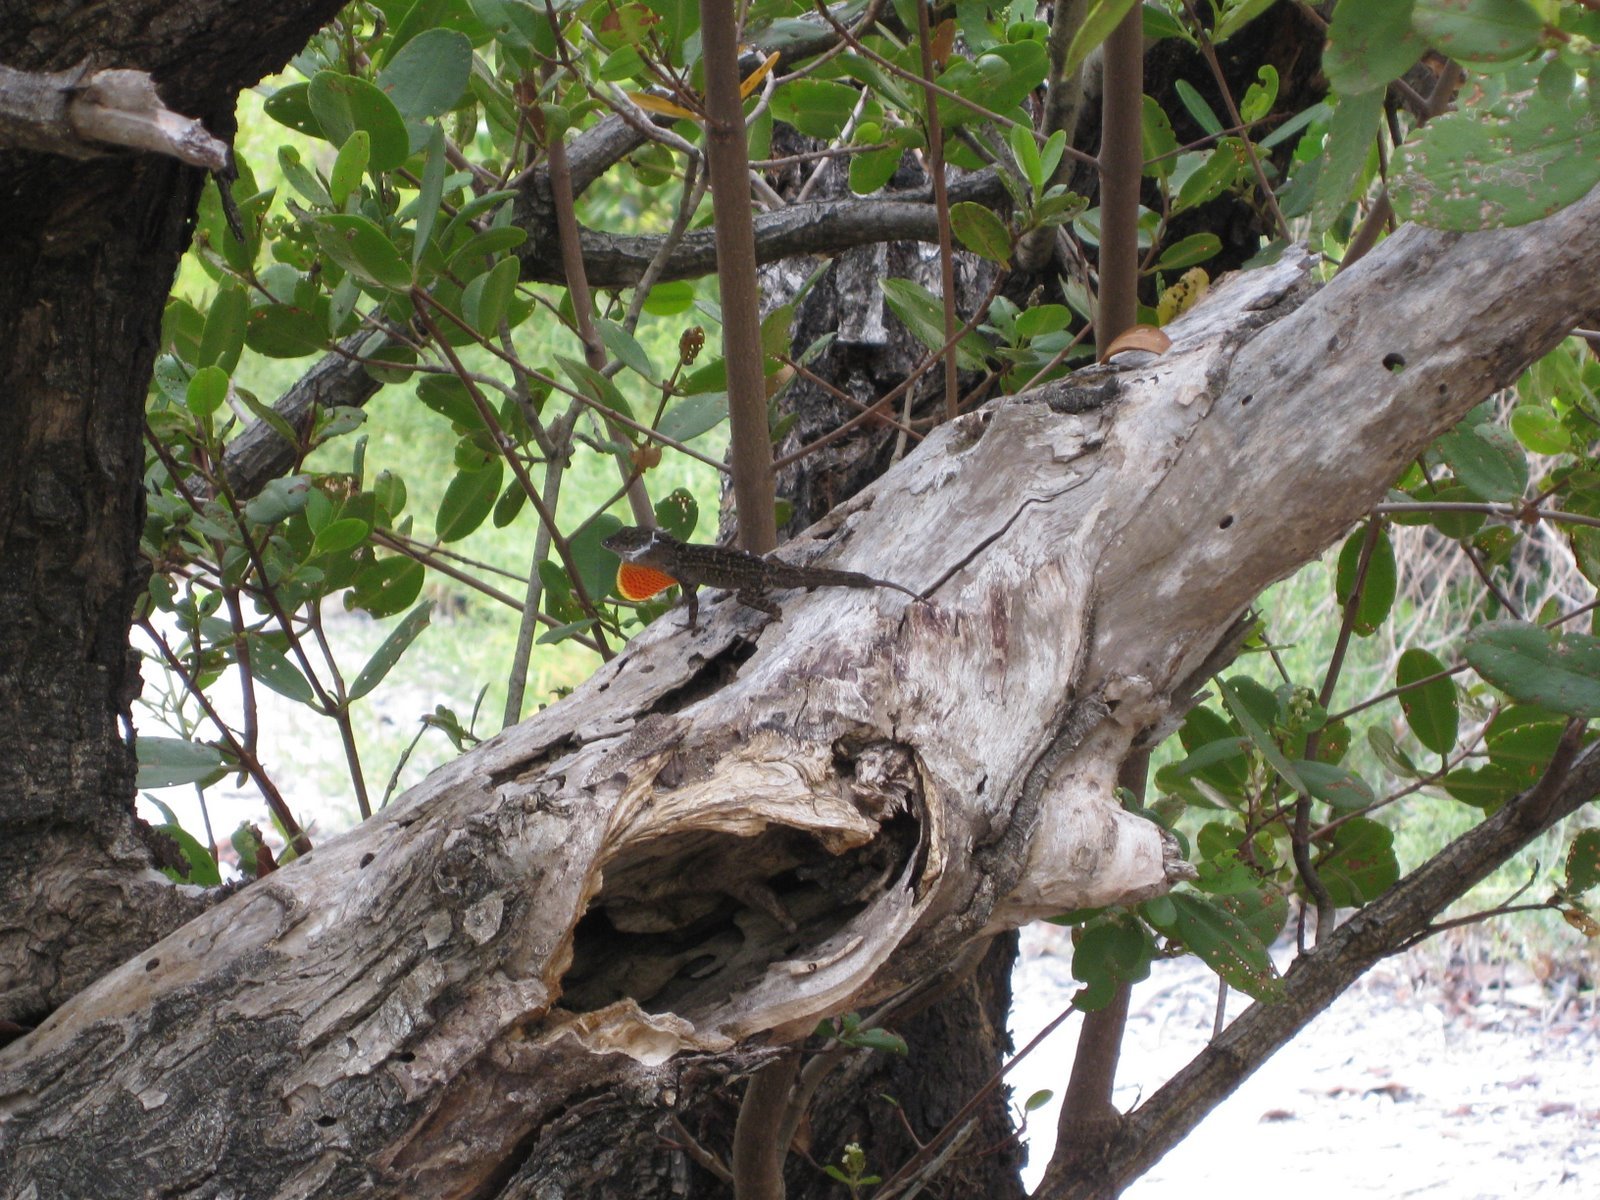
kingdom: Animalia
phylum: Chordata
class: Squamata
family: Dactyloidae
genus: Anolis
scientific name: Anolis sagrei
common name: Brown anole
